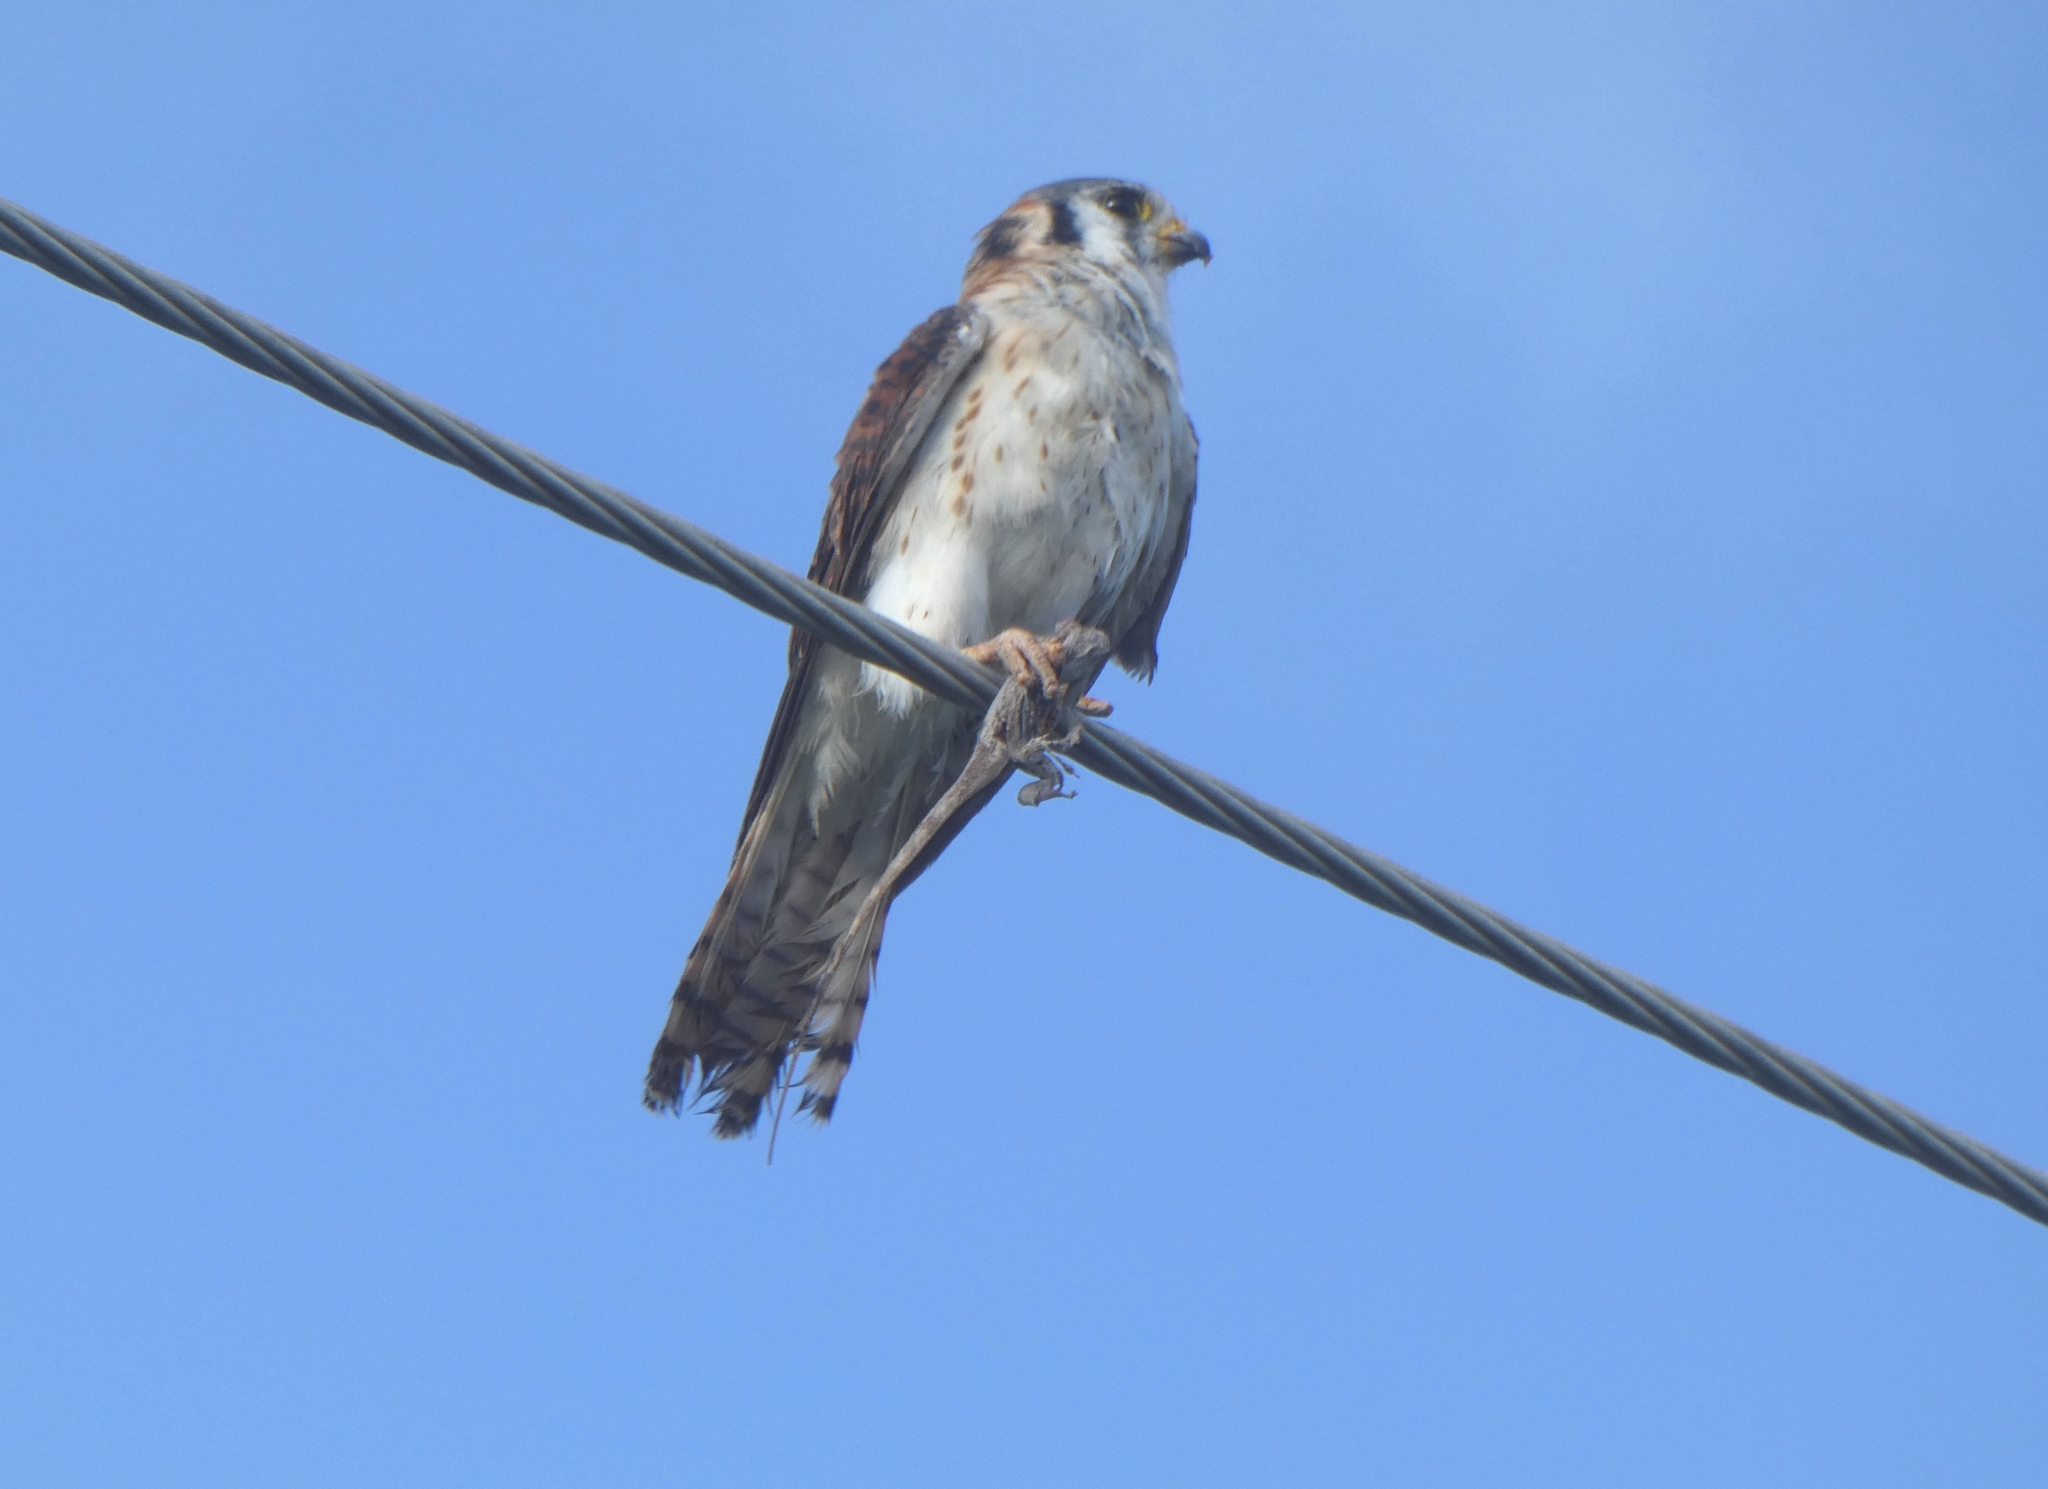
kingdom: Animalia
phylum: Chordata
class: Aves
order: Falconiformes
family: Falconidae
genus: Falco
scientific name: Falco sparverius
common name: American kestrel
